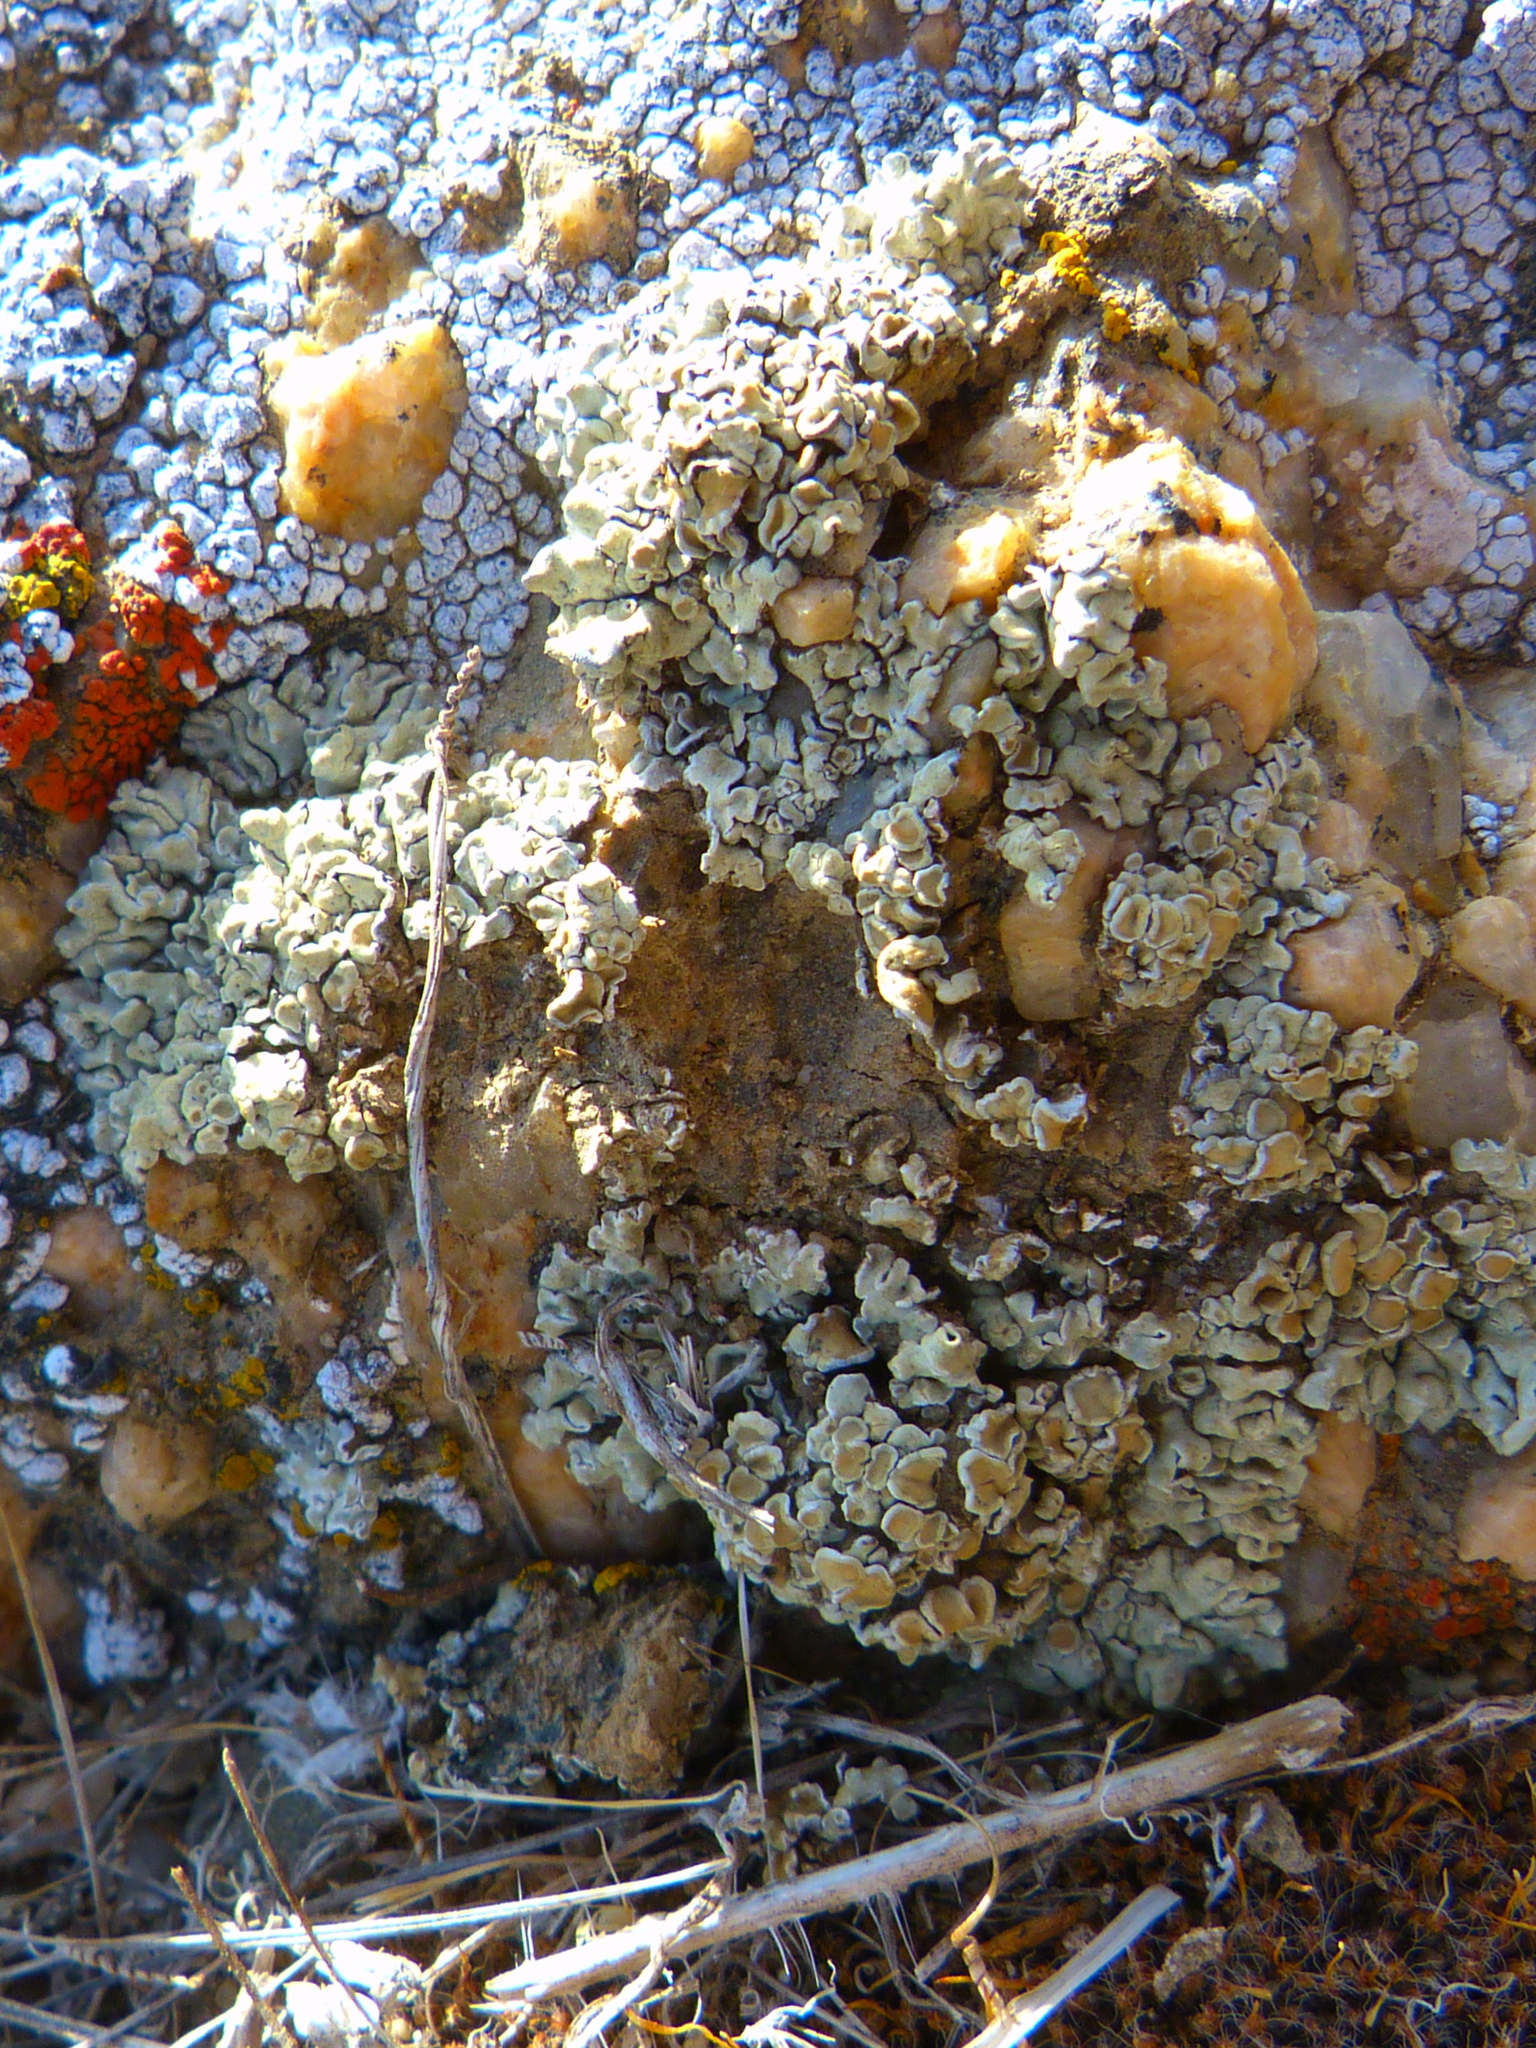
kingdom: Fungi
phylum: Ascomycota
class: Lecanoromycetes
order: Lecanorales
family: Lecanoraceae
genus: Protoparmeliopsis
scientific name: Protoparmeliopsis muralis
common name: Stonewall rim lichen
